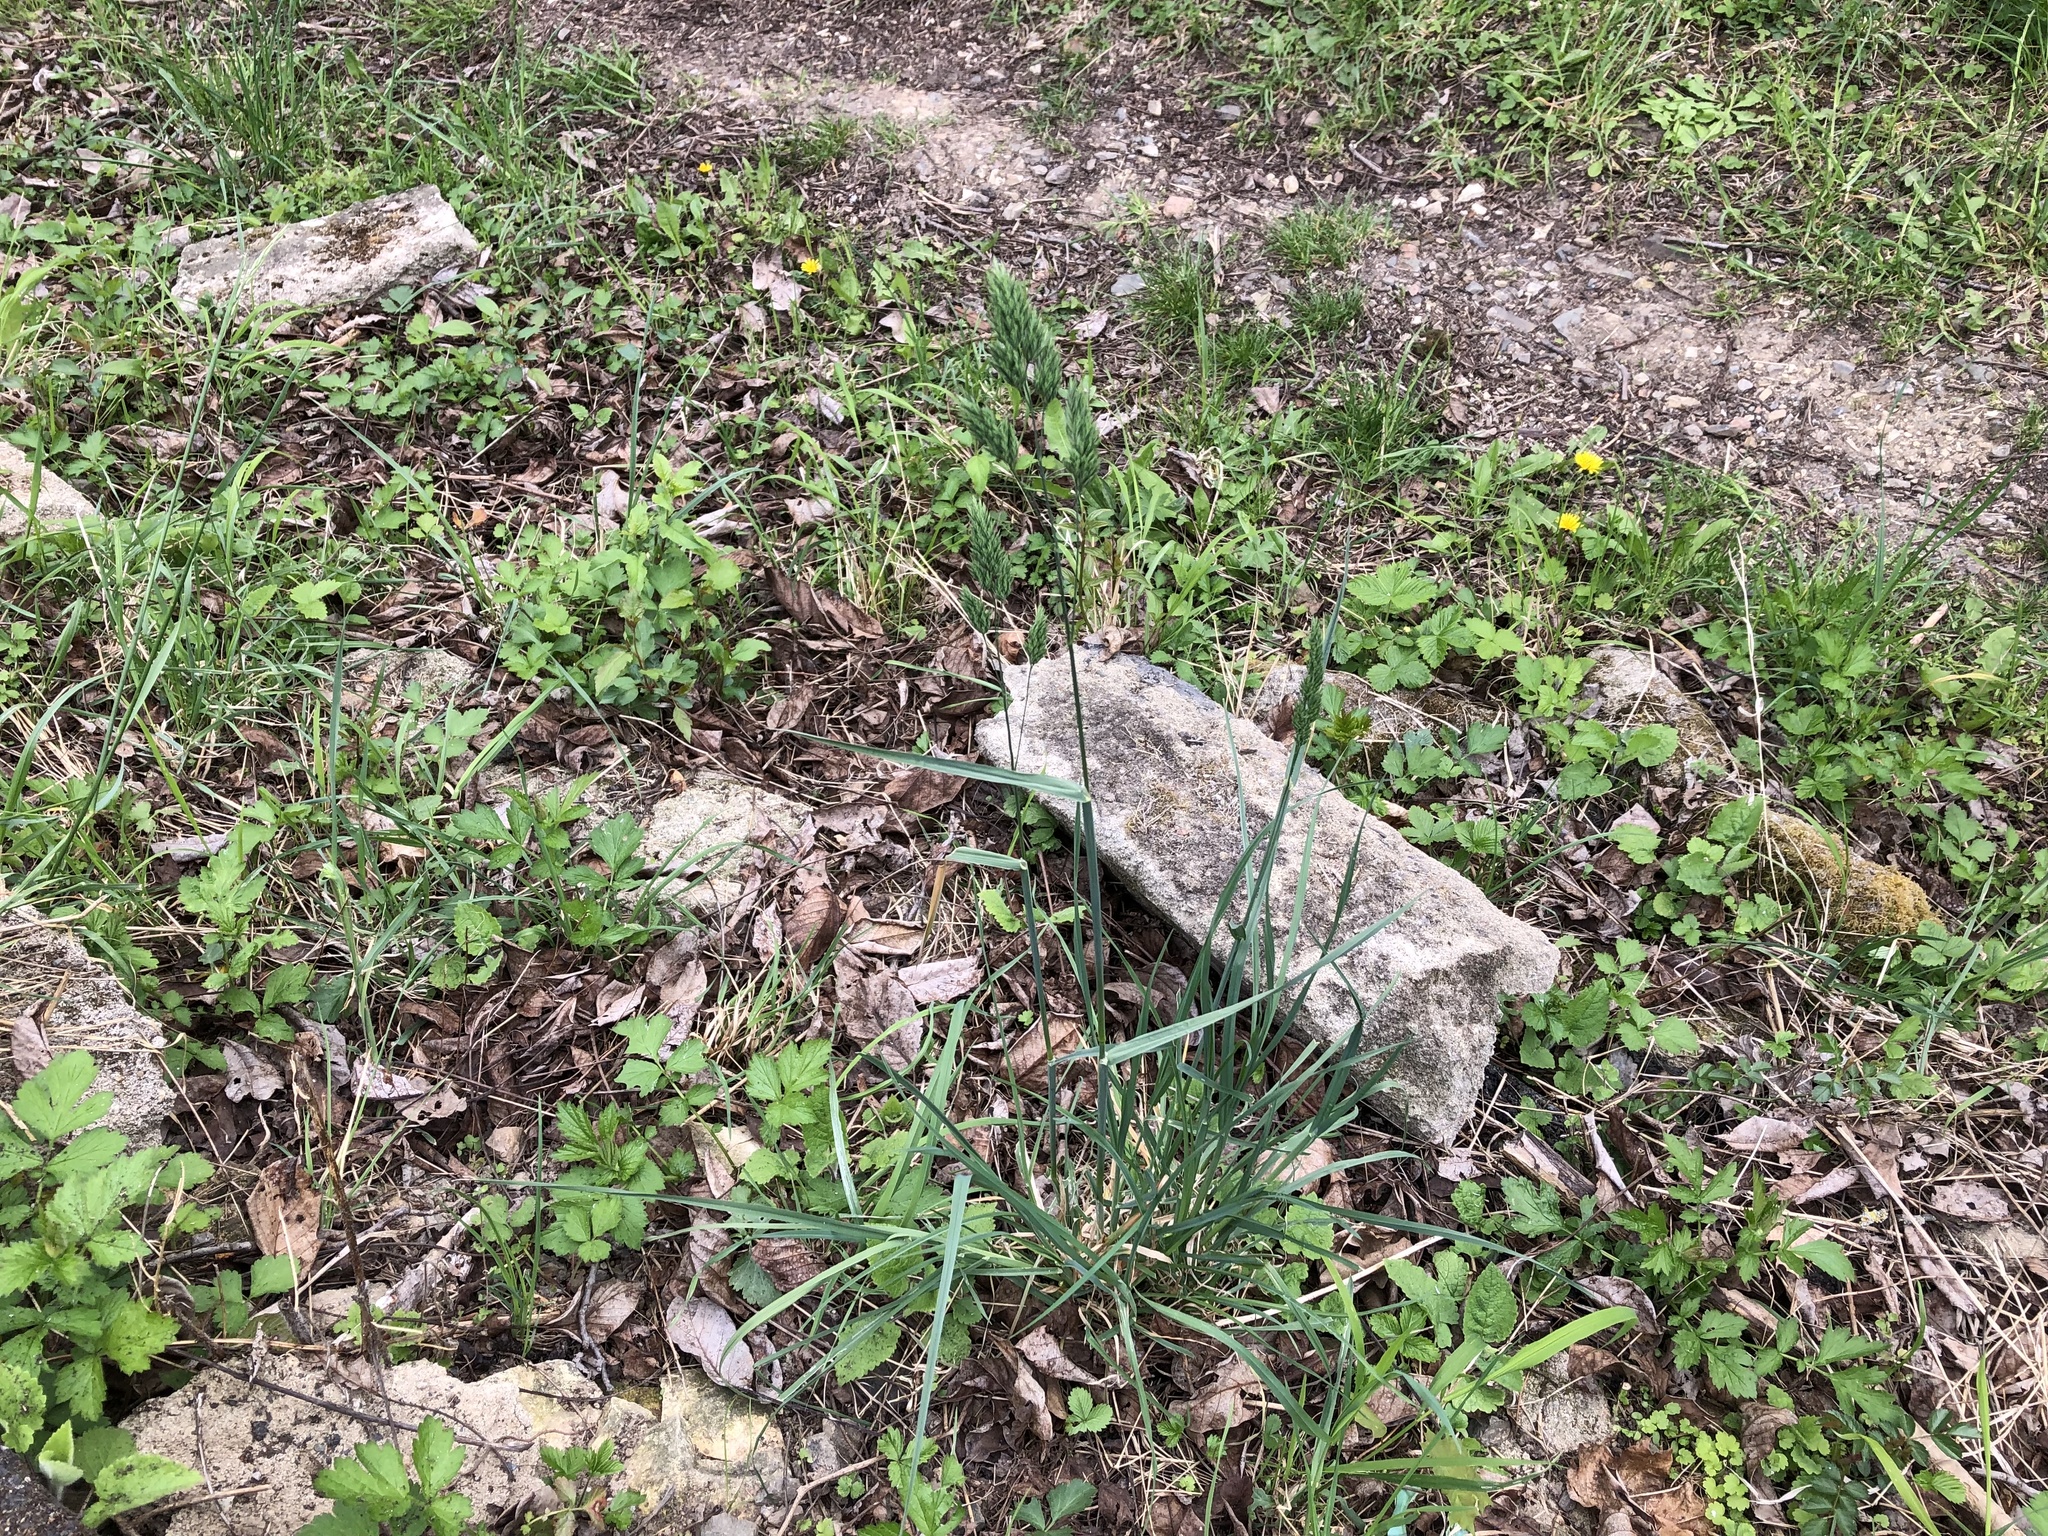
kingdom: Plantae
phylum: Tracheophyta
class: Liliopsida
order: Poales
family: Poaceae
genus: Dactylis
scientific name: Dactylis glomerata
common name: Orchardgrass
